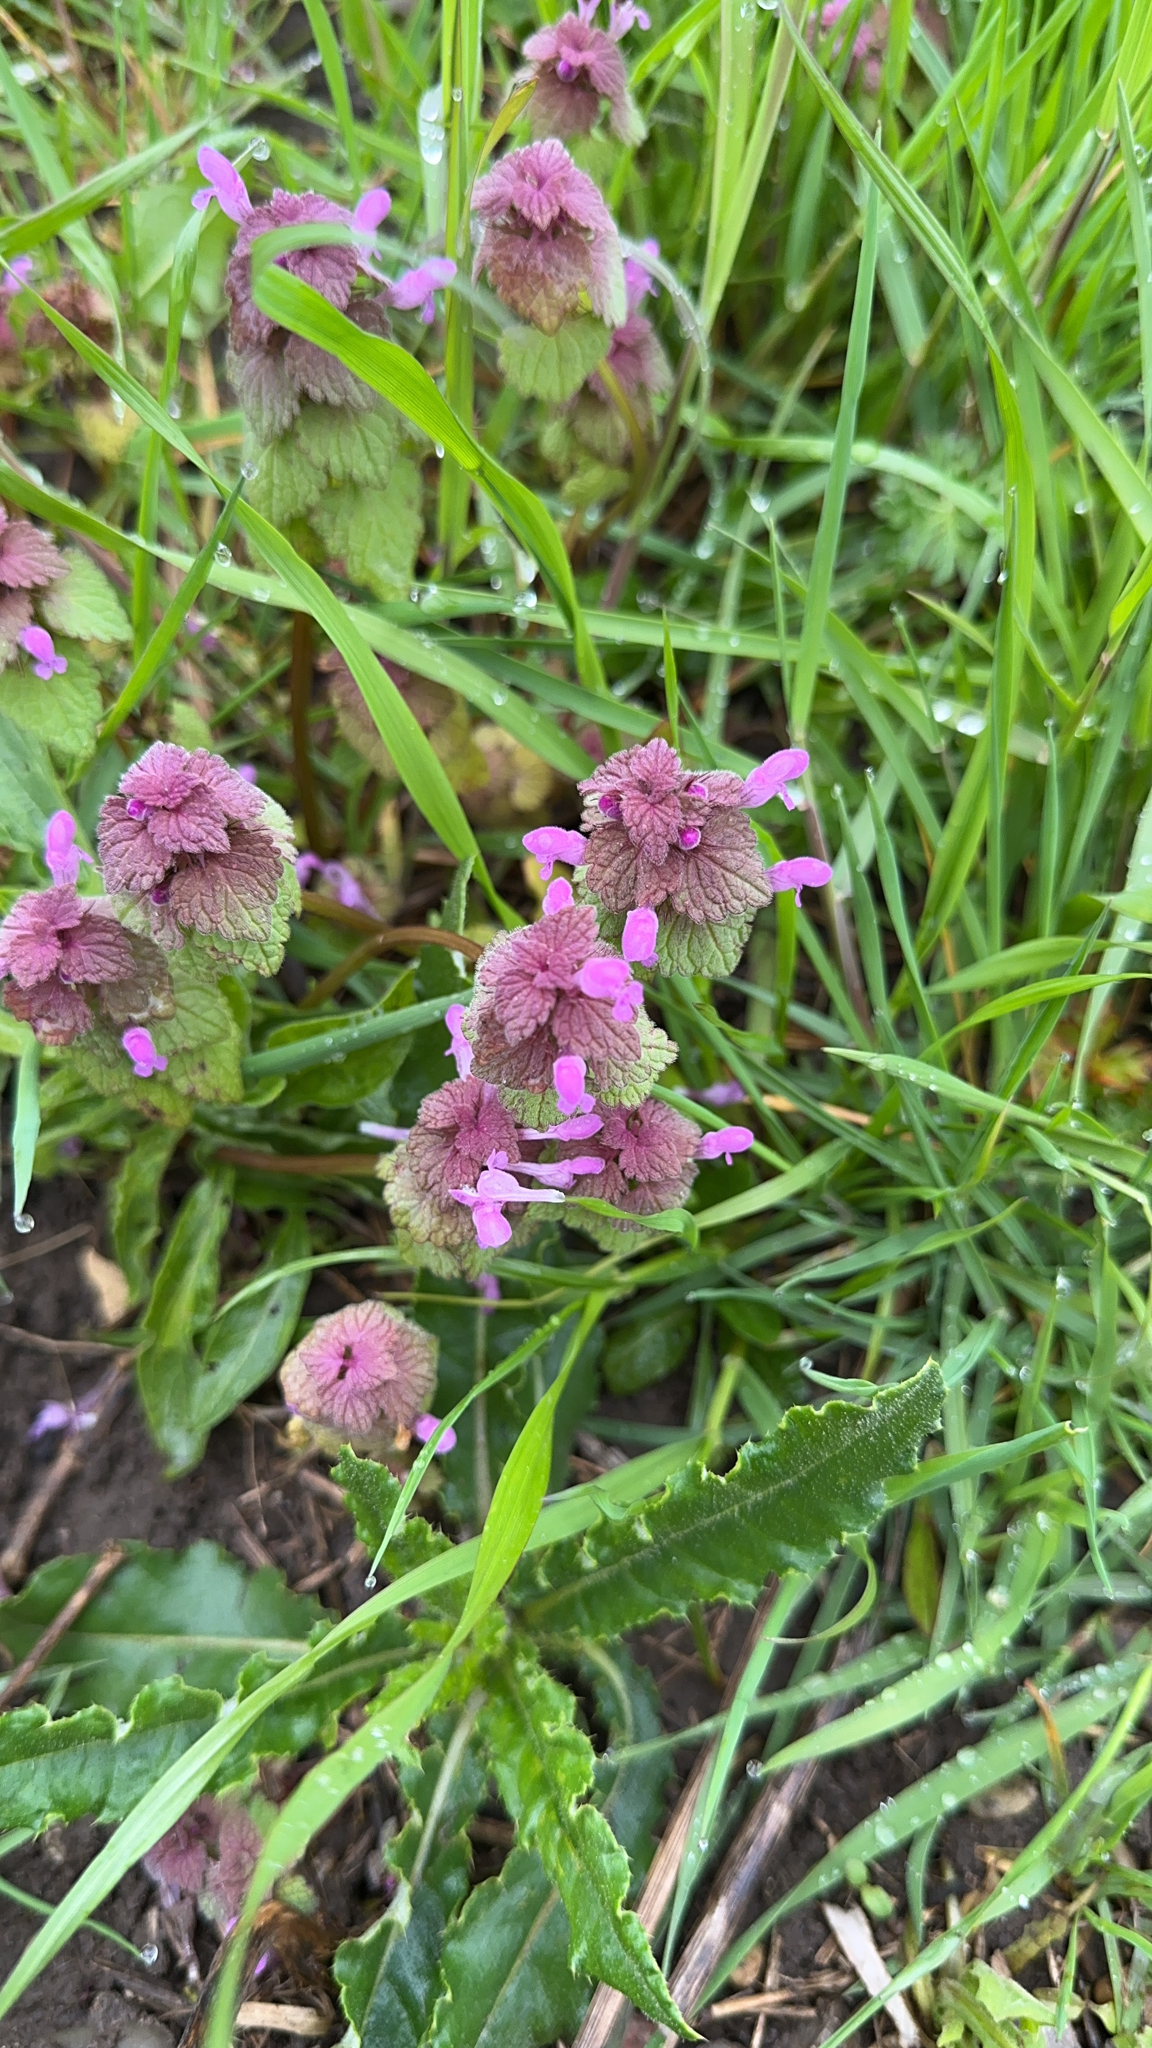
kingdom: Plantae
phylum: Tracheophyta
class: Magnoliopsida
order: Lamiales
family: Lamiaceae
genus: Lamium
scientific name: Lamium purpureum
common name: Red dead-nettle
